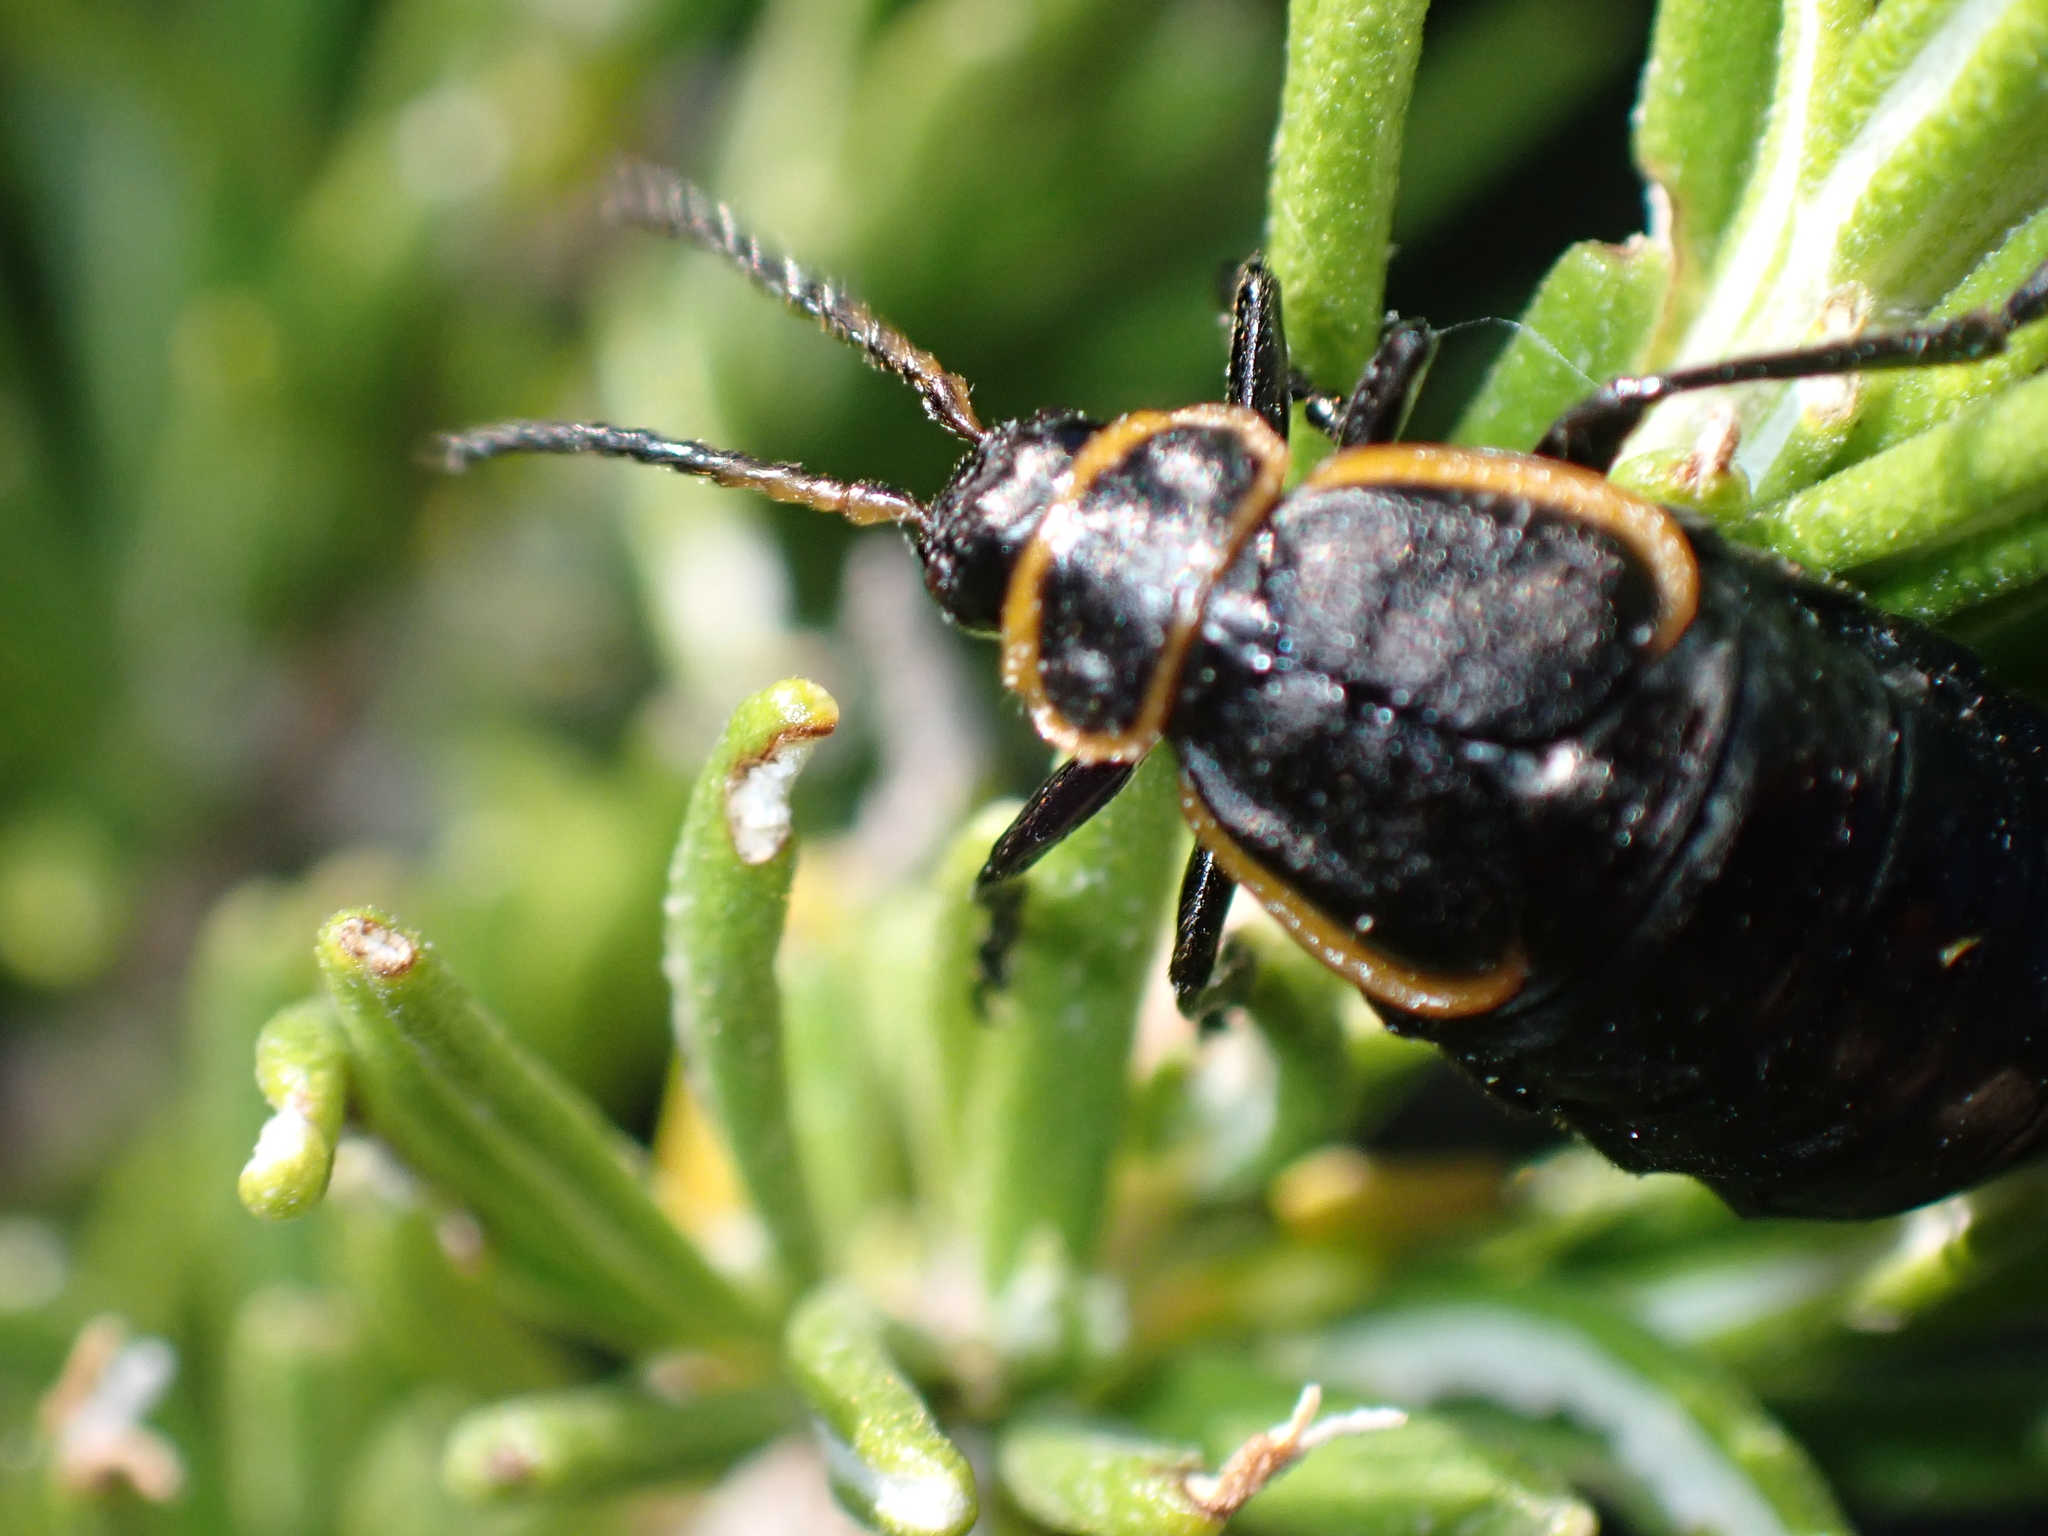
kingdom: Animalia
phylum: Arthropoda
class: Insecta
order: Coleoptera
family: Chrysomelidae
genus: Arima
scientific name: Arima marginata
